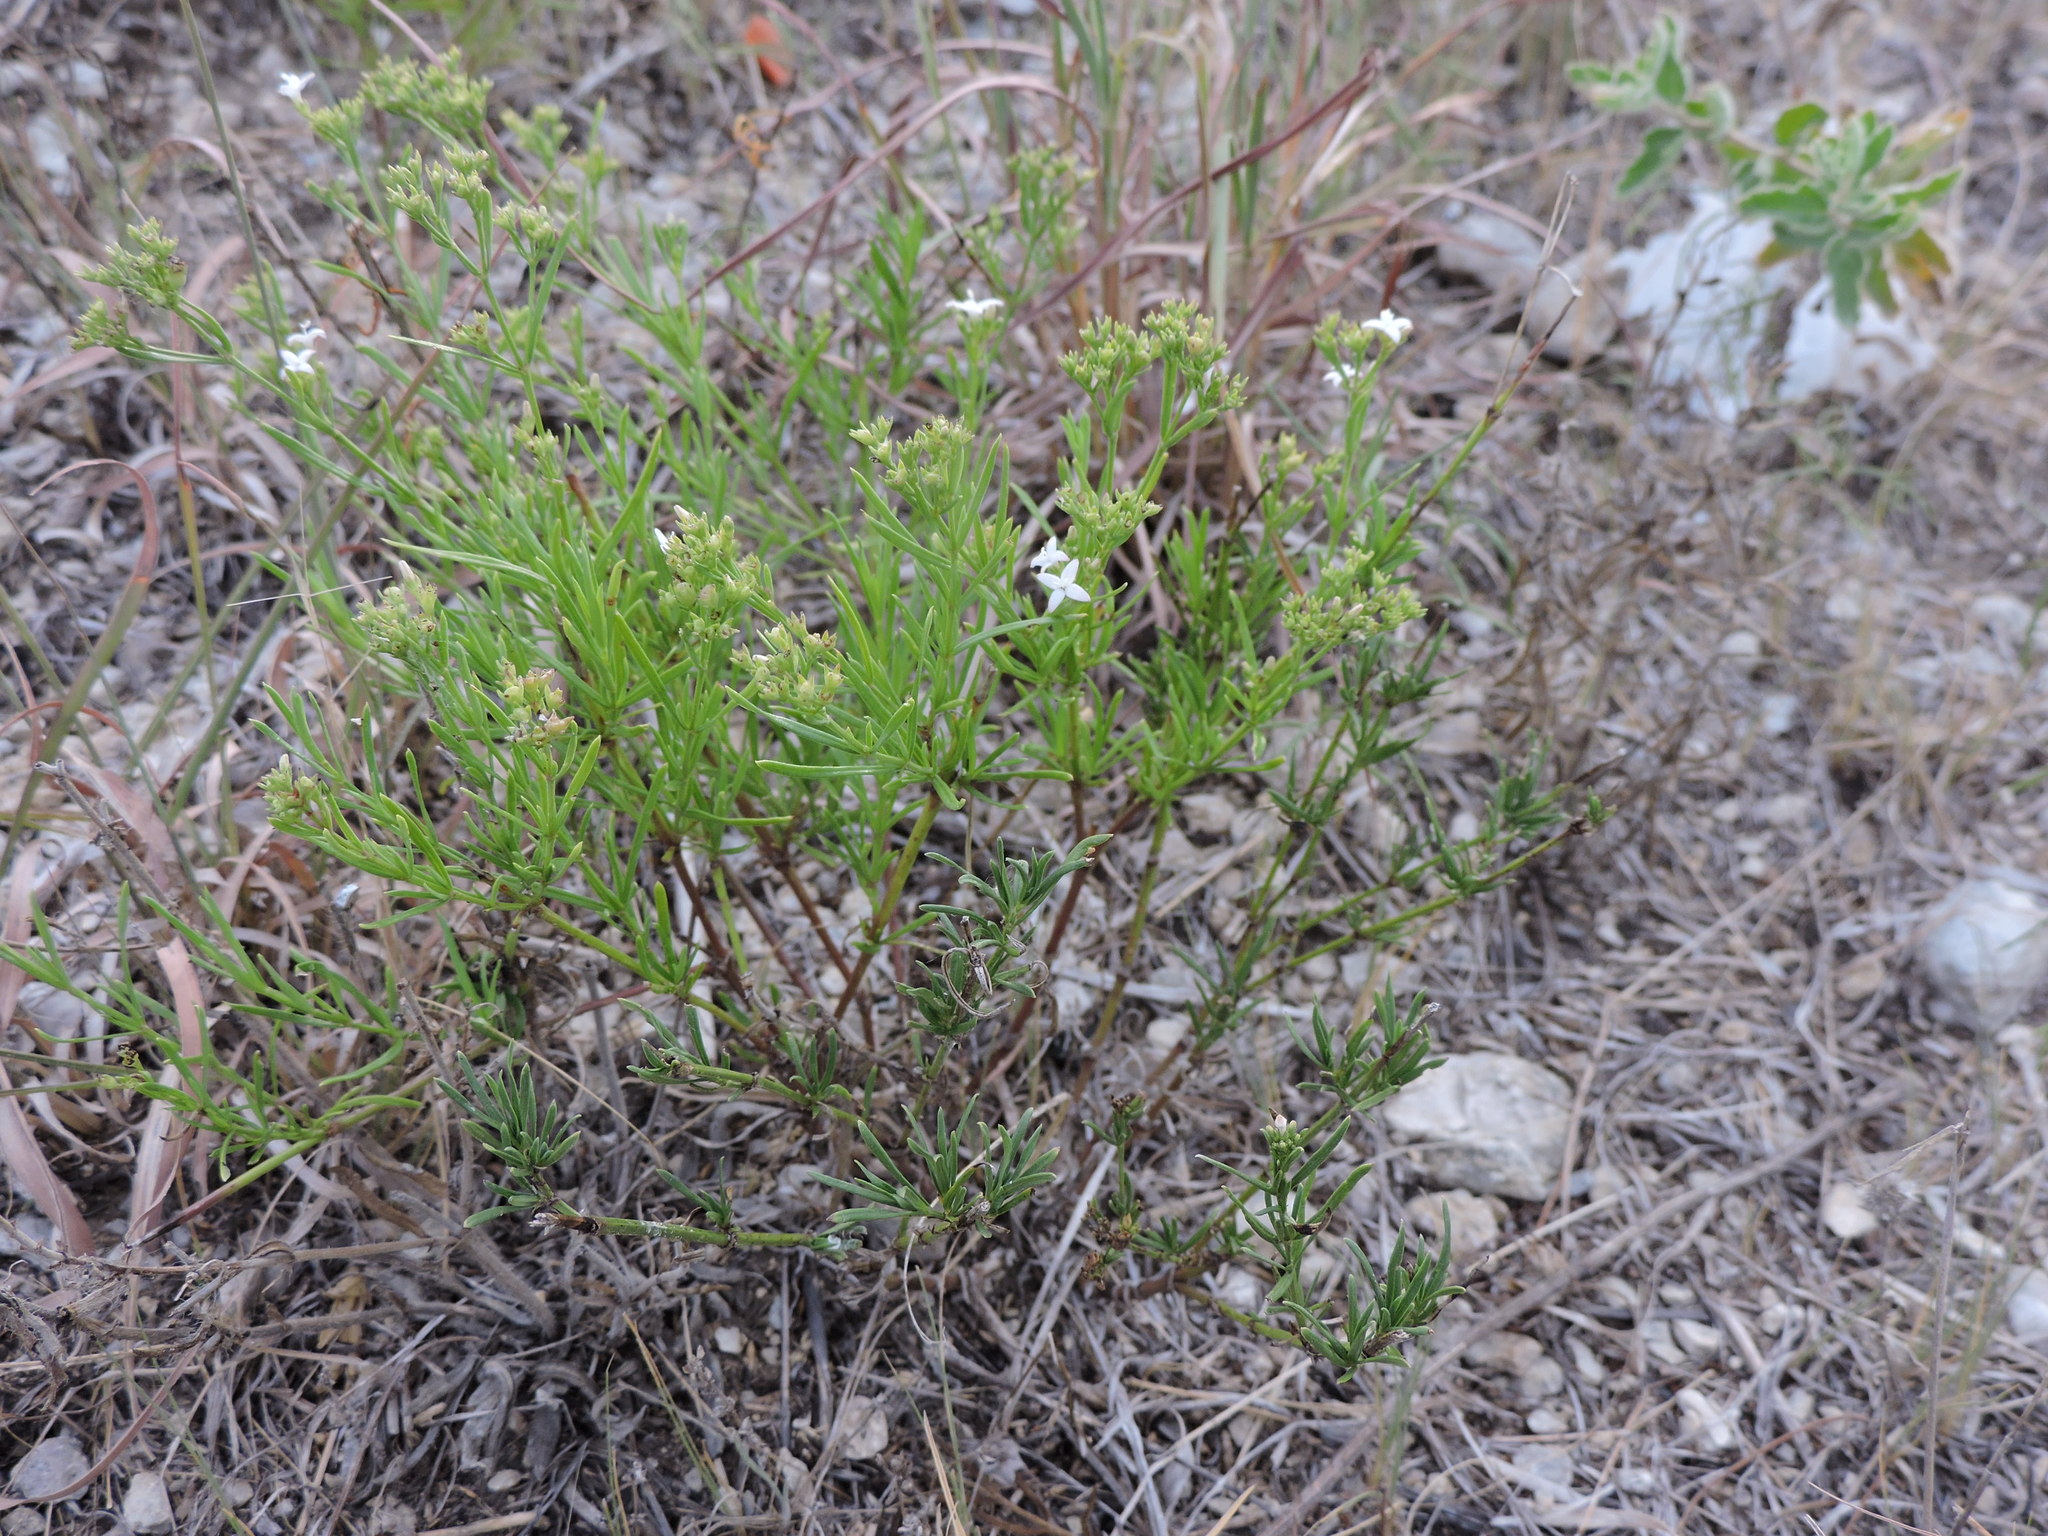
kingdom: Plantae
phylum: Tracheophyta
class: Magnoliopsida
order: Gentianales
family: Rubiaceae
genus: Stenaria
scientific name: Stenaria nigricans
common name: Diamondflowers
